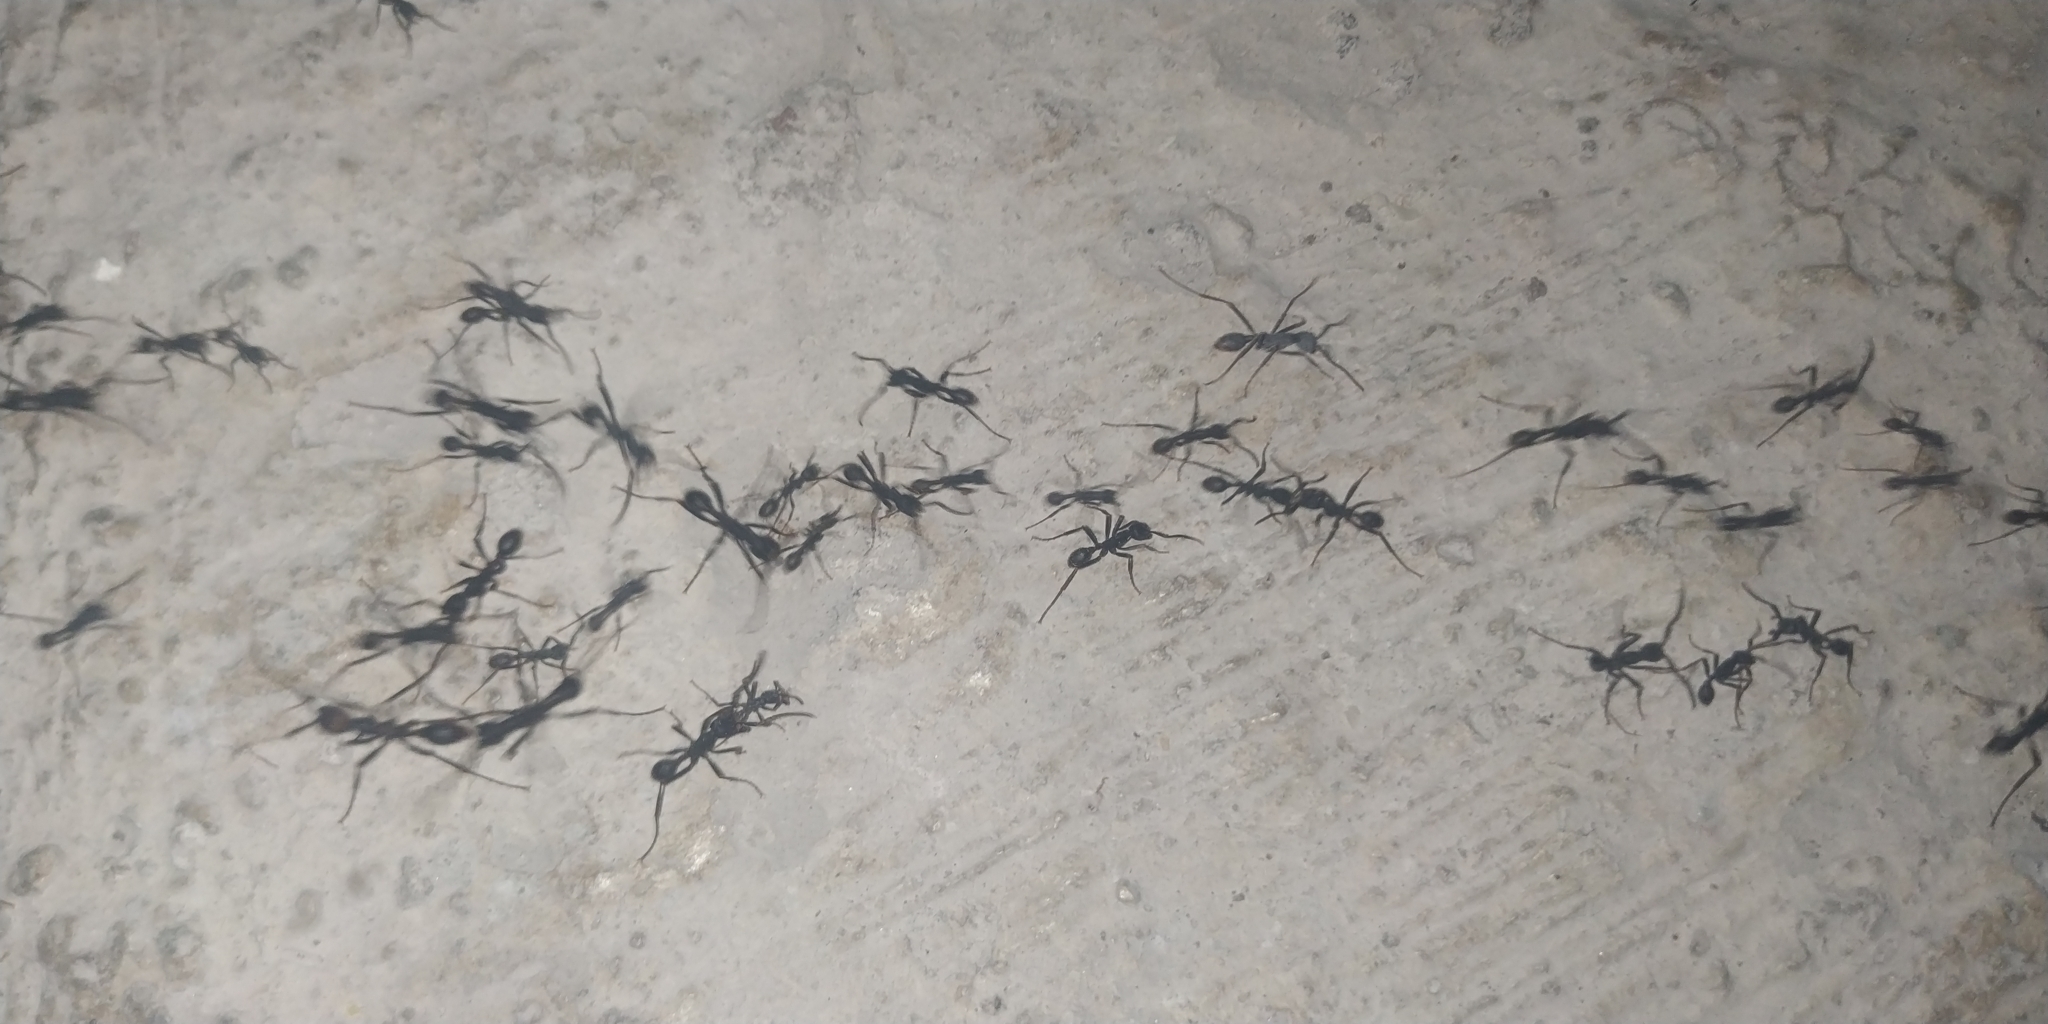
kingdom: Animalia
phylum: Arthropoda
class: Insecta
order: Hymenoptera
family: Formicidae
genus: Eciton
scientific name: Eciton burchellii
